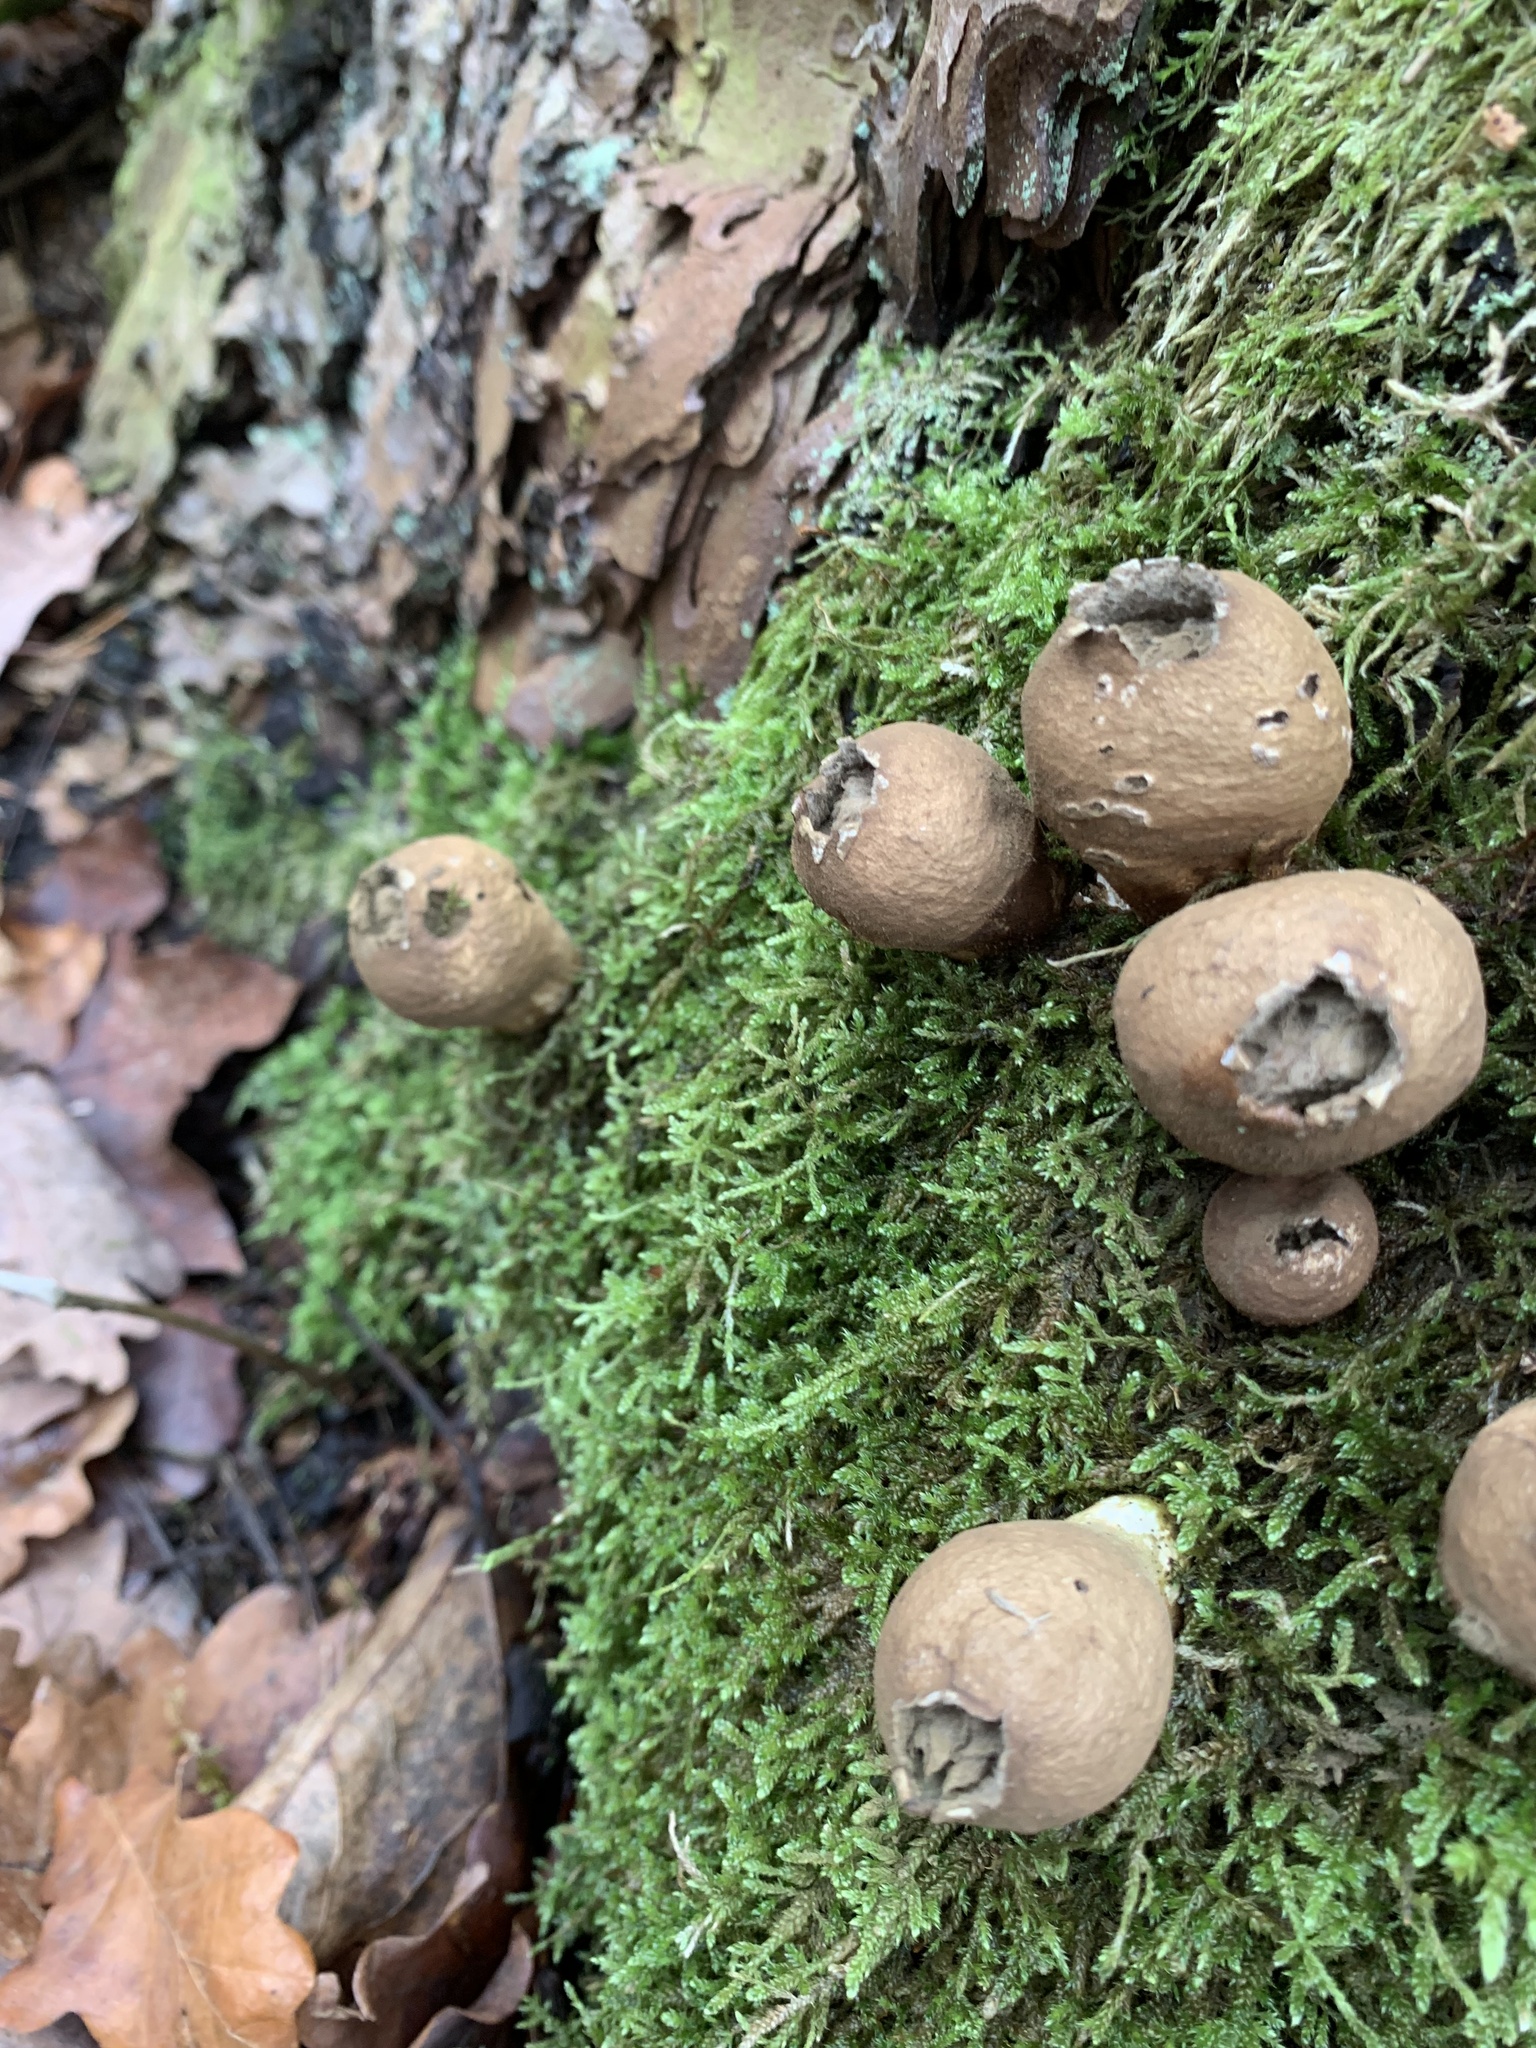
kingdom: Fungi
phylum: Basidiomycota
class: Agaricomycetes
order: Agaricales
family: Lycoperdaceae
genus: Apioperdon
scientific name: Apioperdon pyriforme
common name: Pear-shaped puffball
